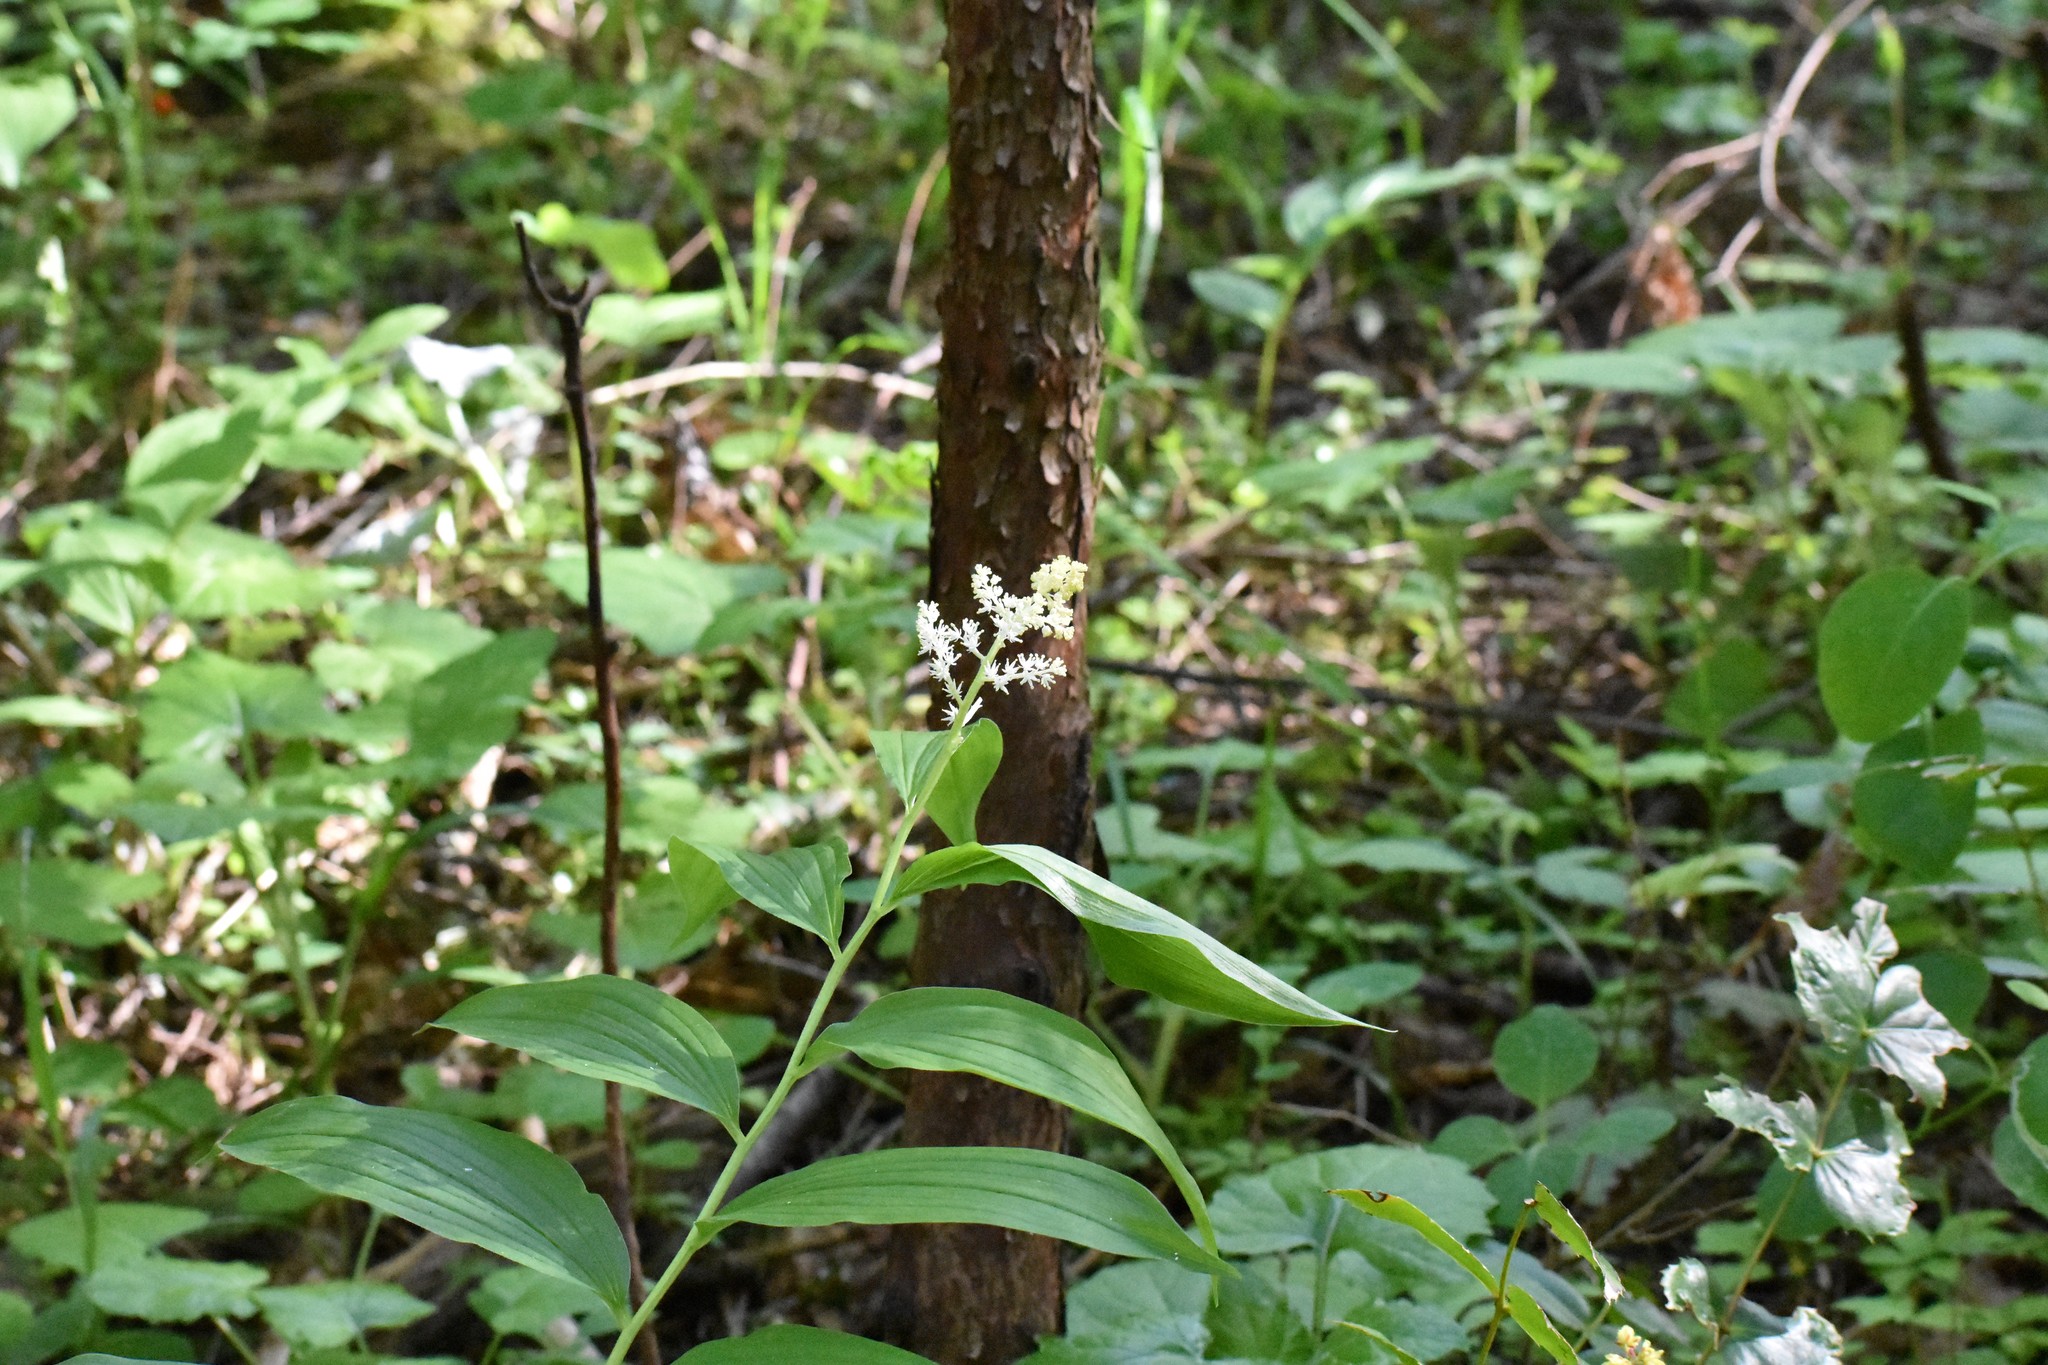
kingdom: Plantae
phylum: Tracheophyta
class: Liliopsida
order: Asparagales
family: Asparagaceae
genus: Maianthemum
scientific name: Maianthemum racemosum
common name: False spikenard
